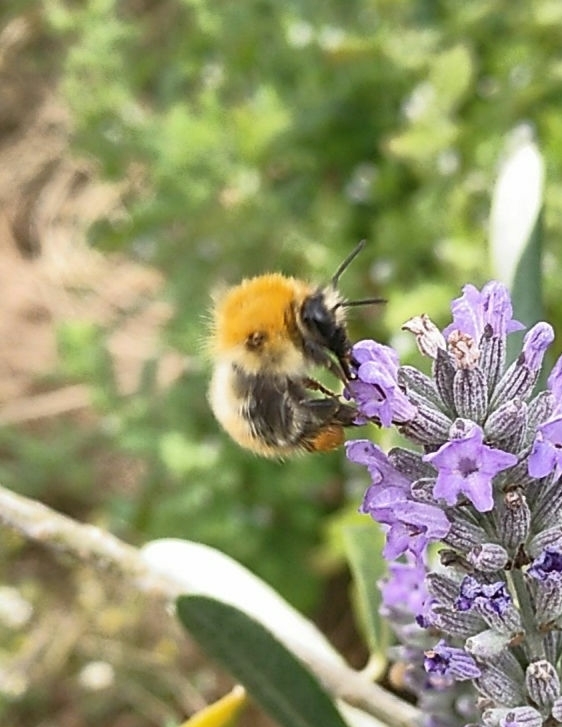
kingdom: Animalia
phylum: Arthropoda
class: Insecta
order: Hymenoptera
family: Apidae
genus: Bombus
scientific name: Bombus pascuorum
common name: Common carder bee
